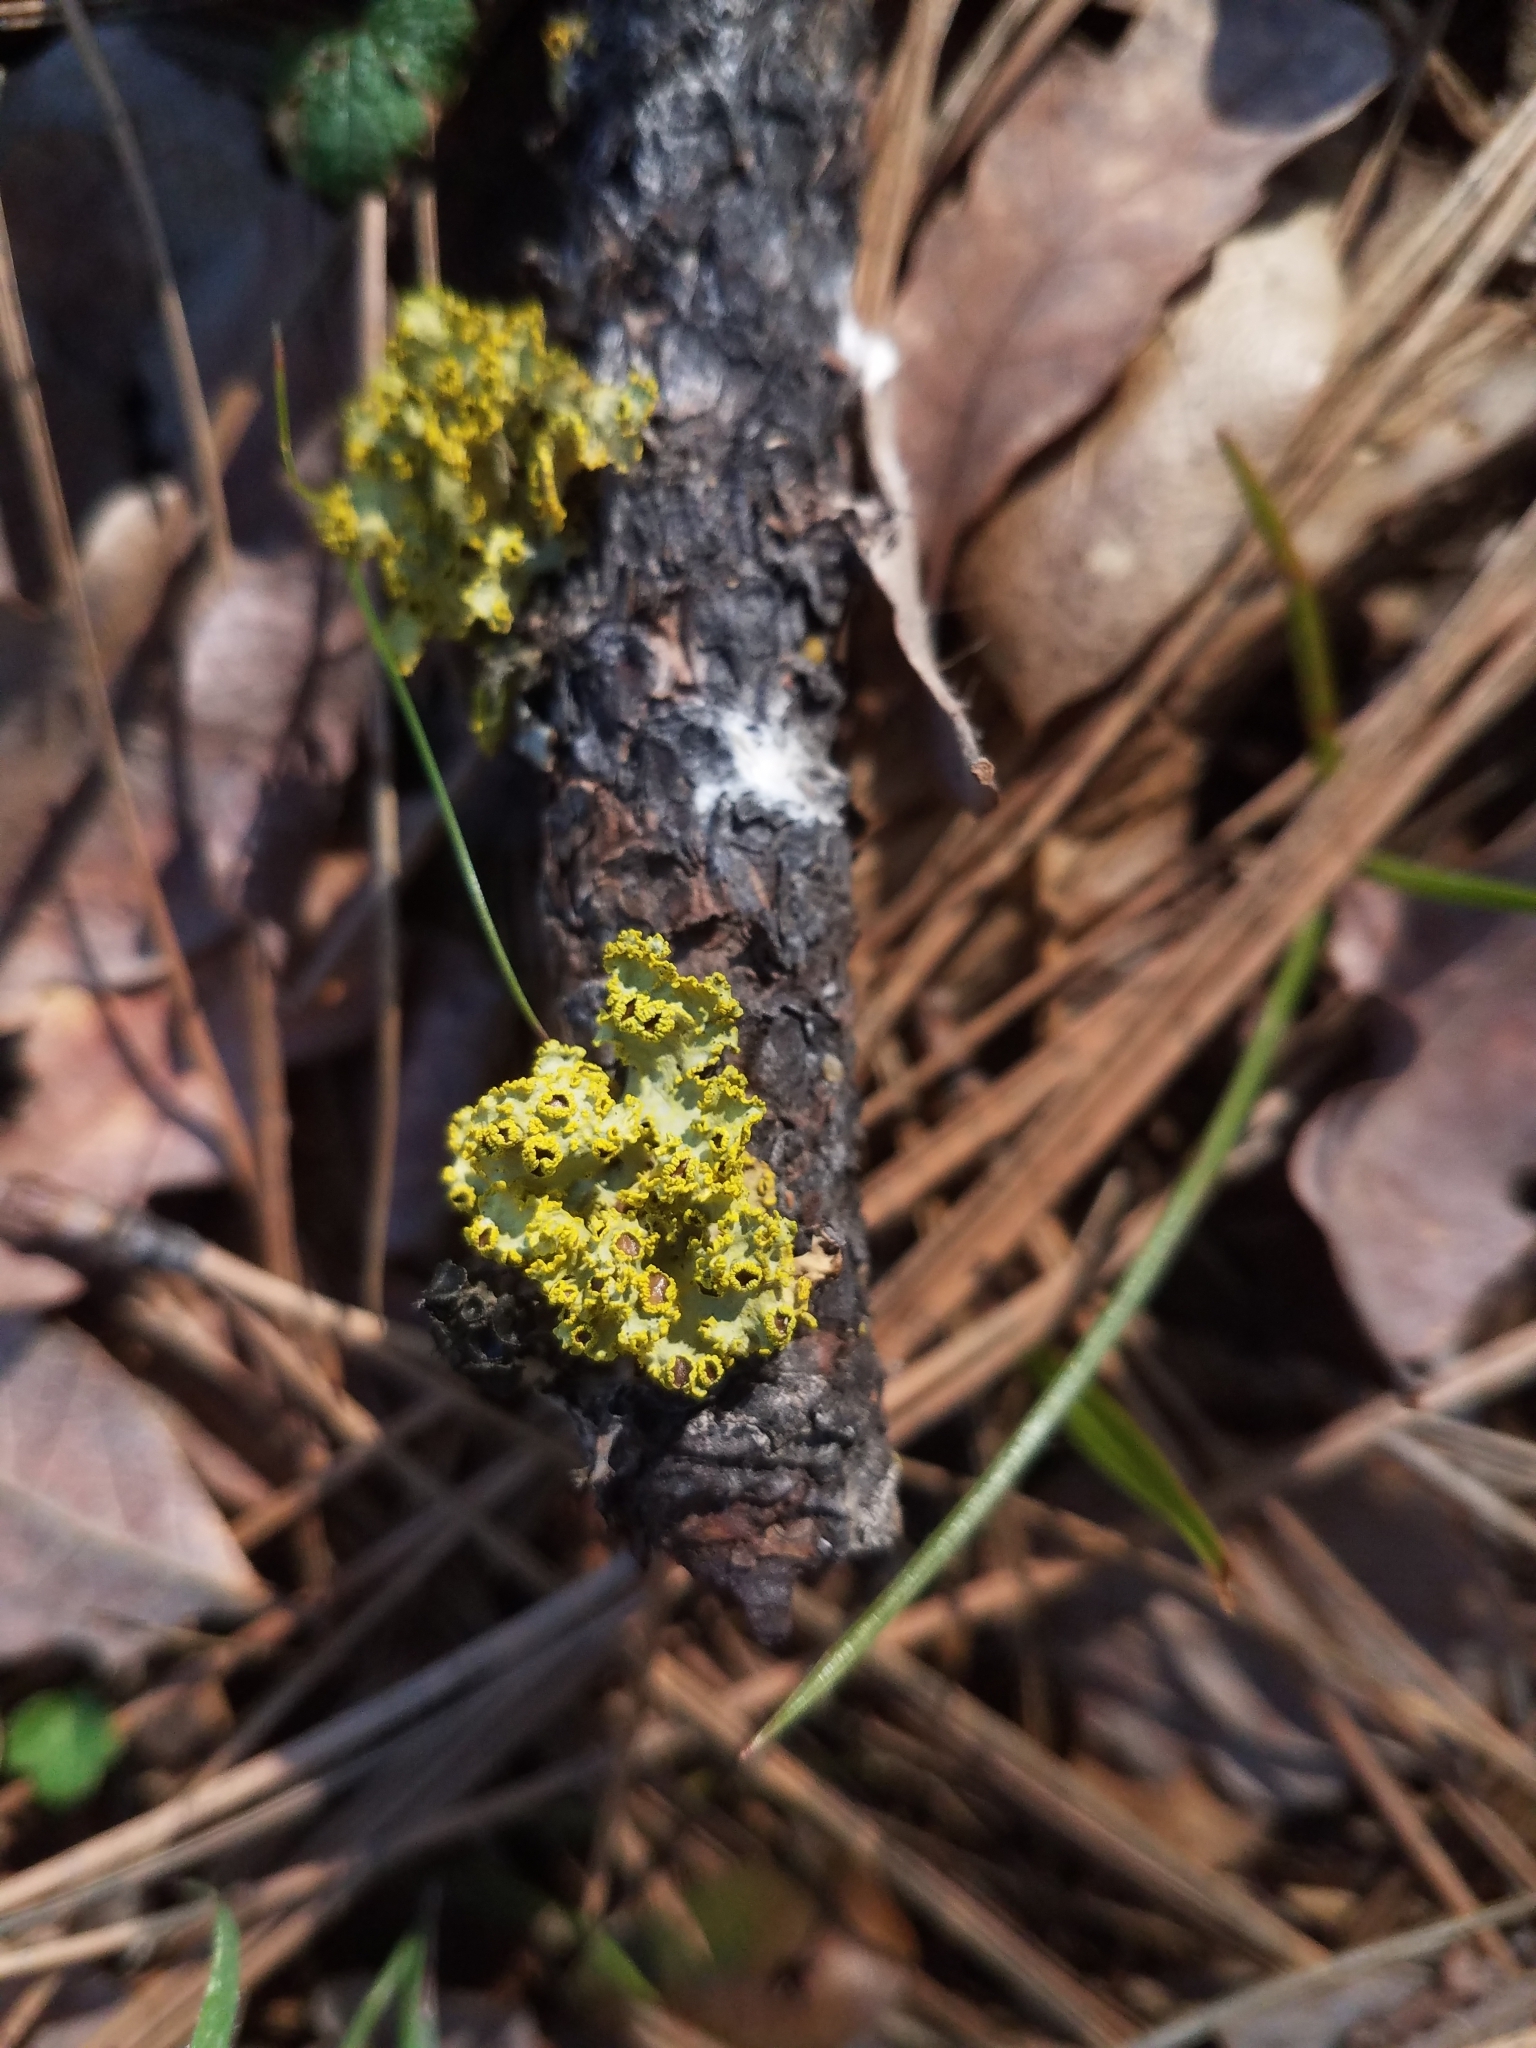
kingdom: Fungi
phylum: Ascomycota
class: Lecanoromycetes
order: Lecanorales
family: Parmeliaceae
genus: Vulpicida
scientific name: Vulpicida canadensis
